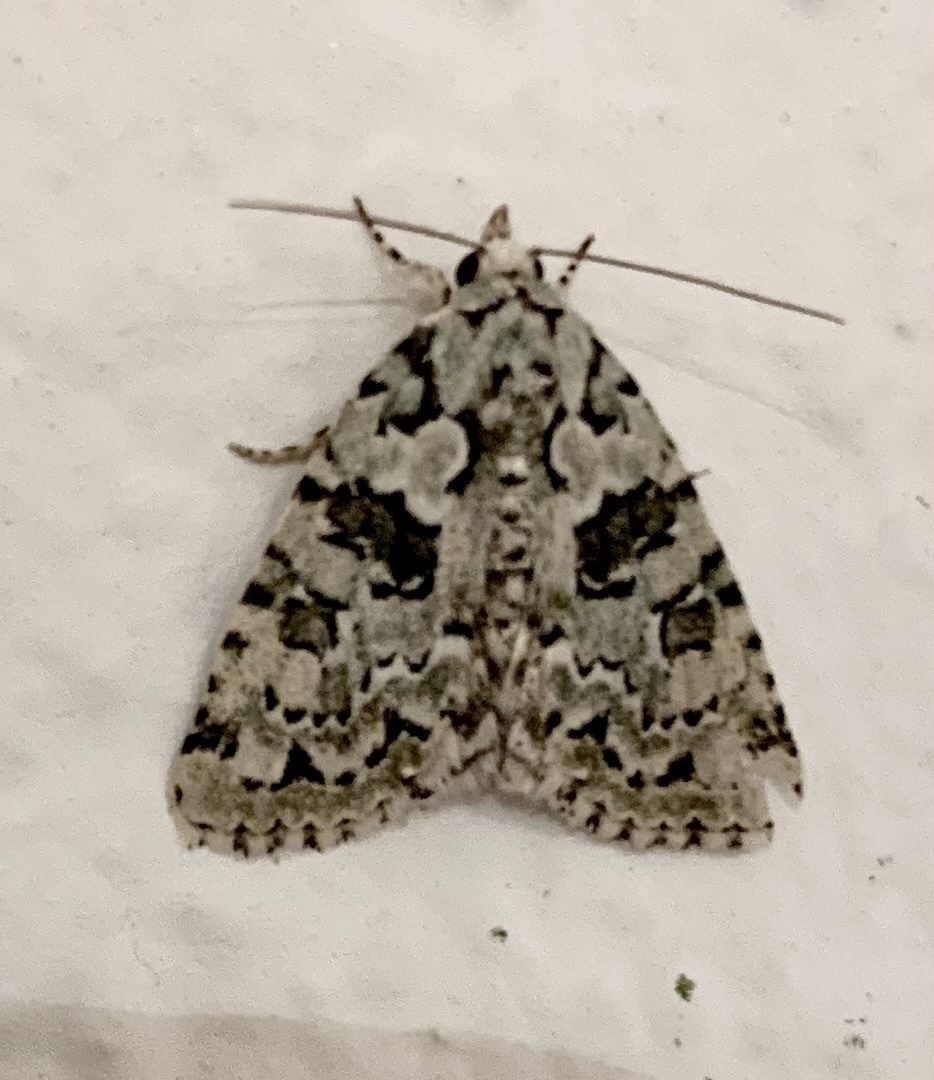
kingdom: Animalia
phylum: Arthropoda
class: Insecta
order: Lepidoptera
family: Noctuidae
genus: Nyctobrya
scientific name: Nyctobrya muralis
